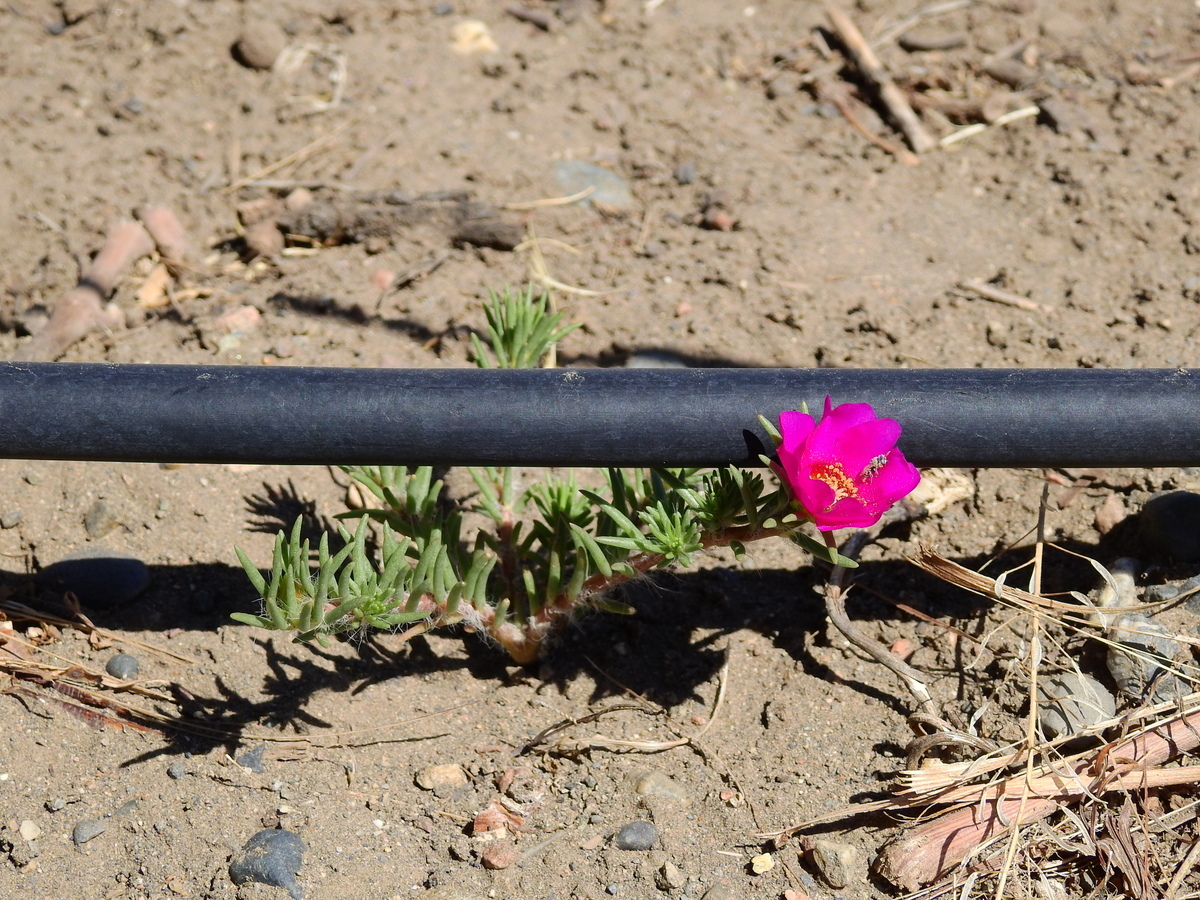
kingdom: Plantae
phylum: Tracheophyta
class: Magnoliopsida
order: Caryophyllales
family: Portulacaceae
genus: Portulaca
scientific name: Portulaca grandiflora
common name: Moss-rose
